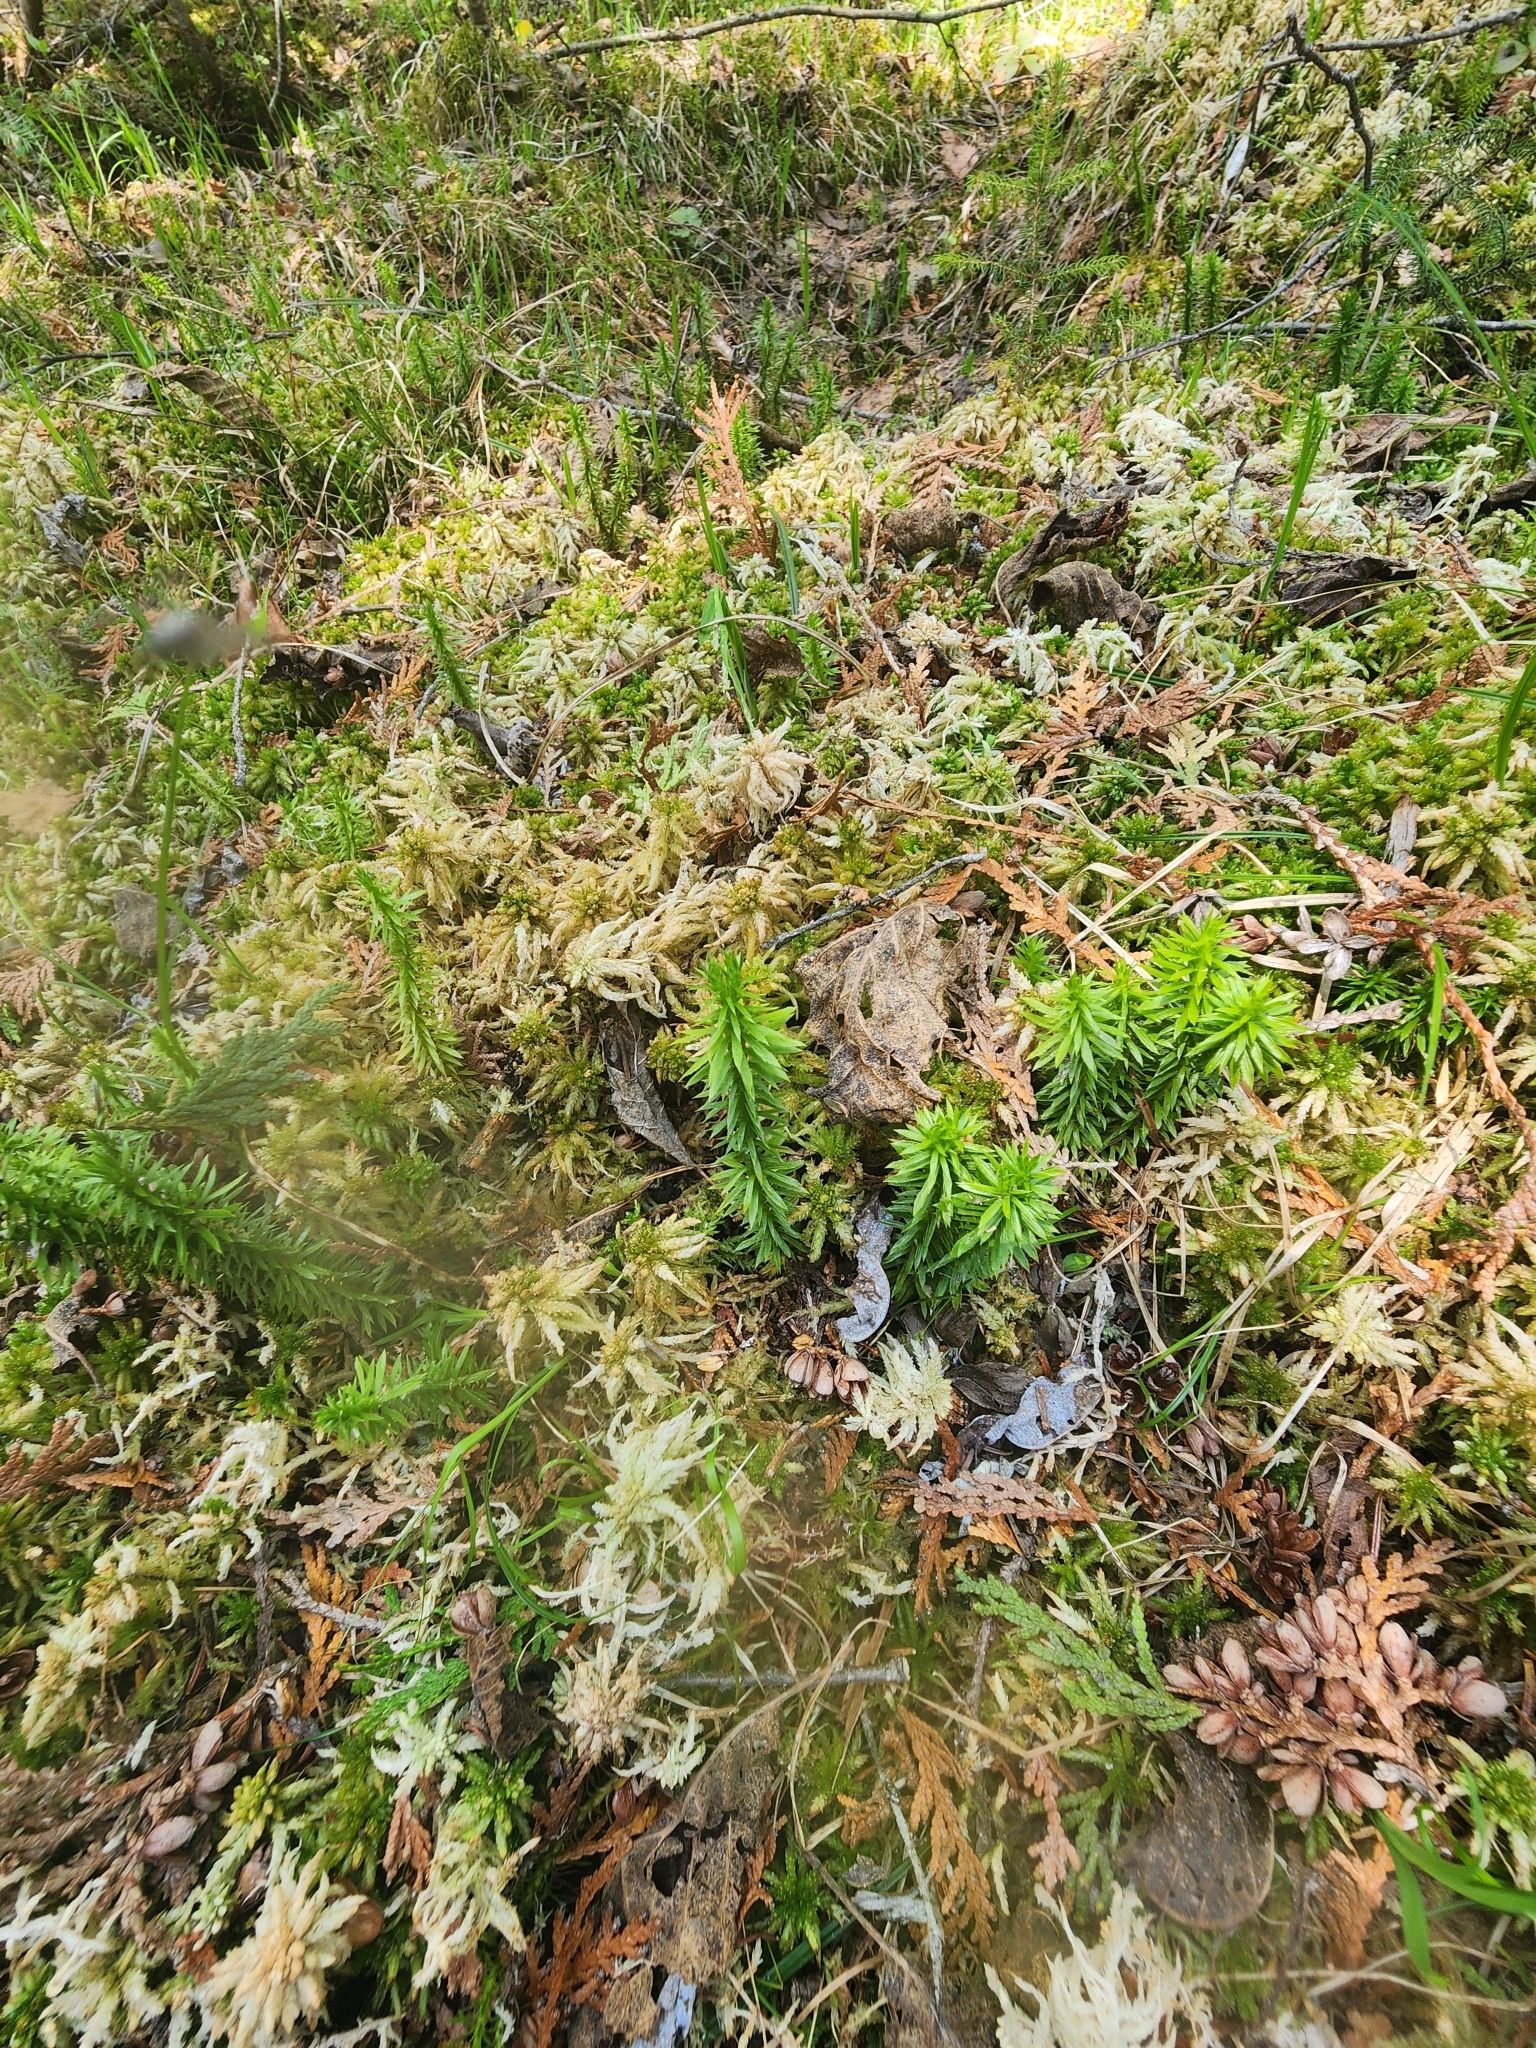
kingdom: Plantae
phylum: Tracheophyta
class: Lycopodiopsida
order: Lycopodiales
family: Lycopodiaceae
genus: Huperzia
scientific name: Huperzia lucidula
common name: Shining clubmoss
